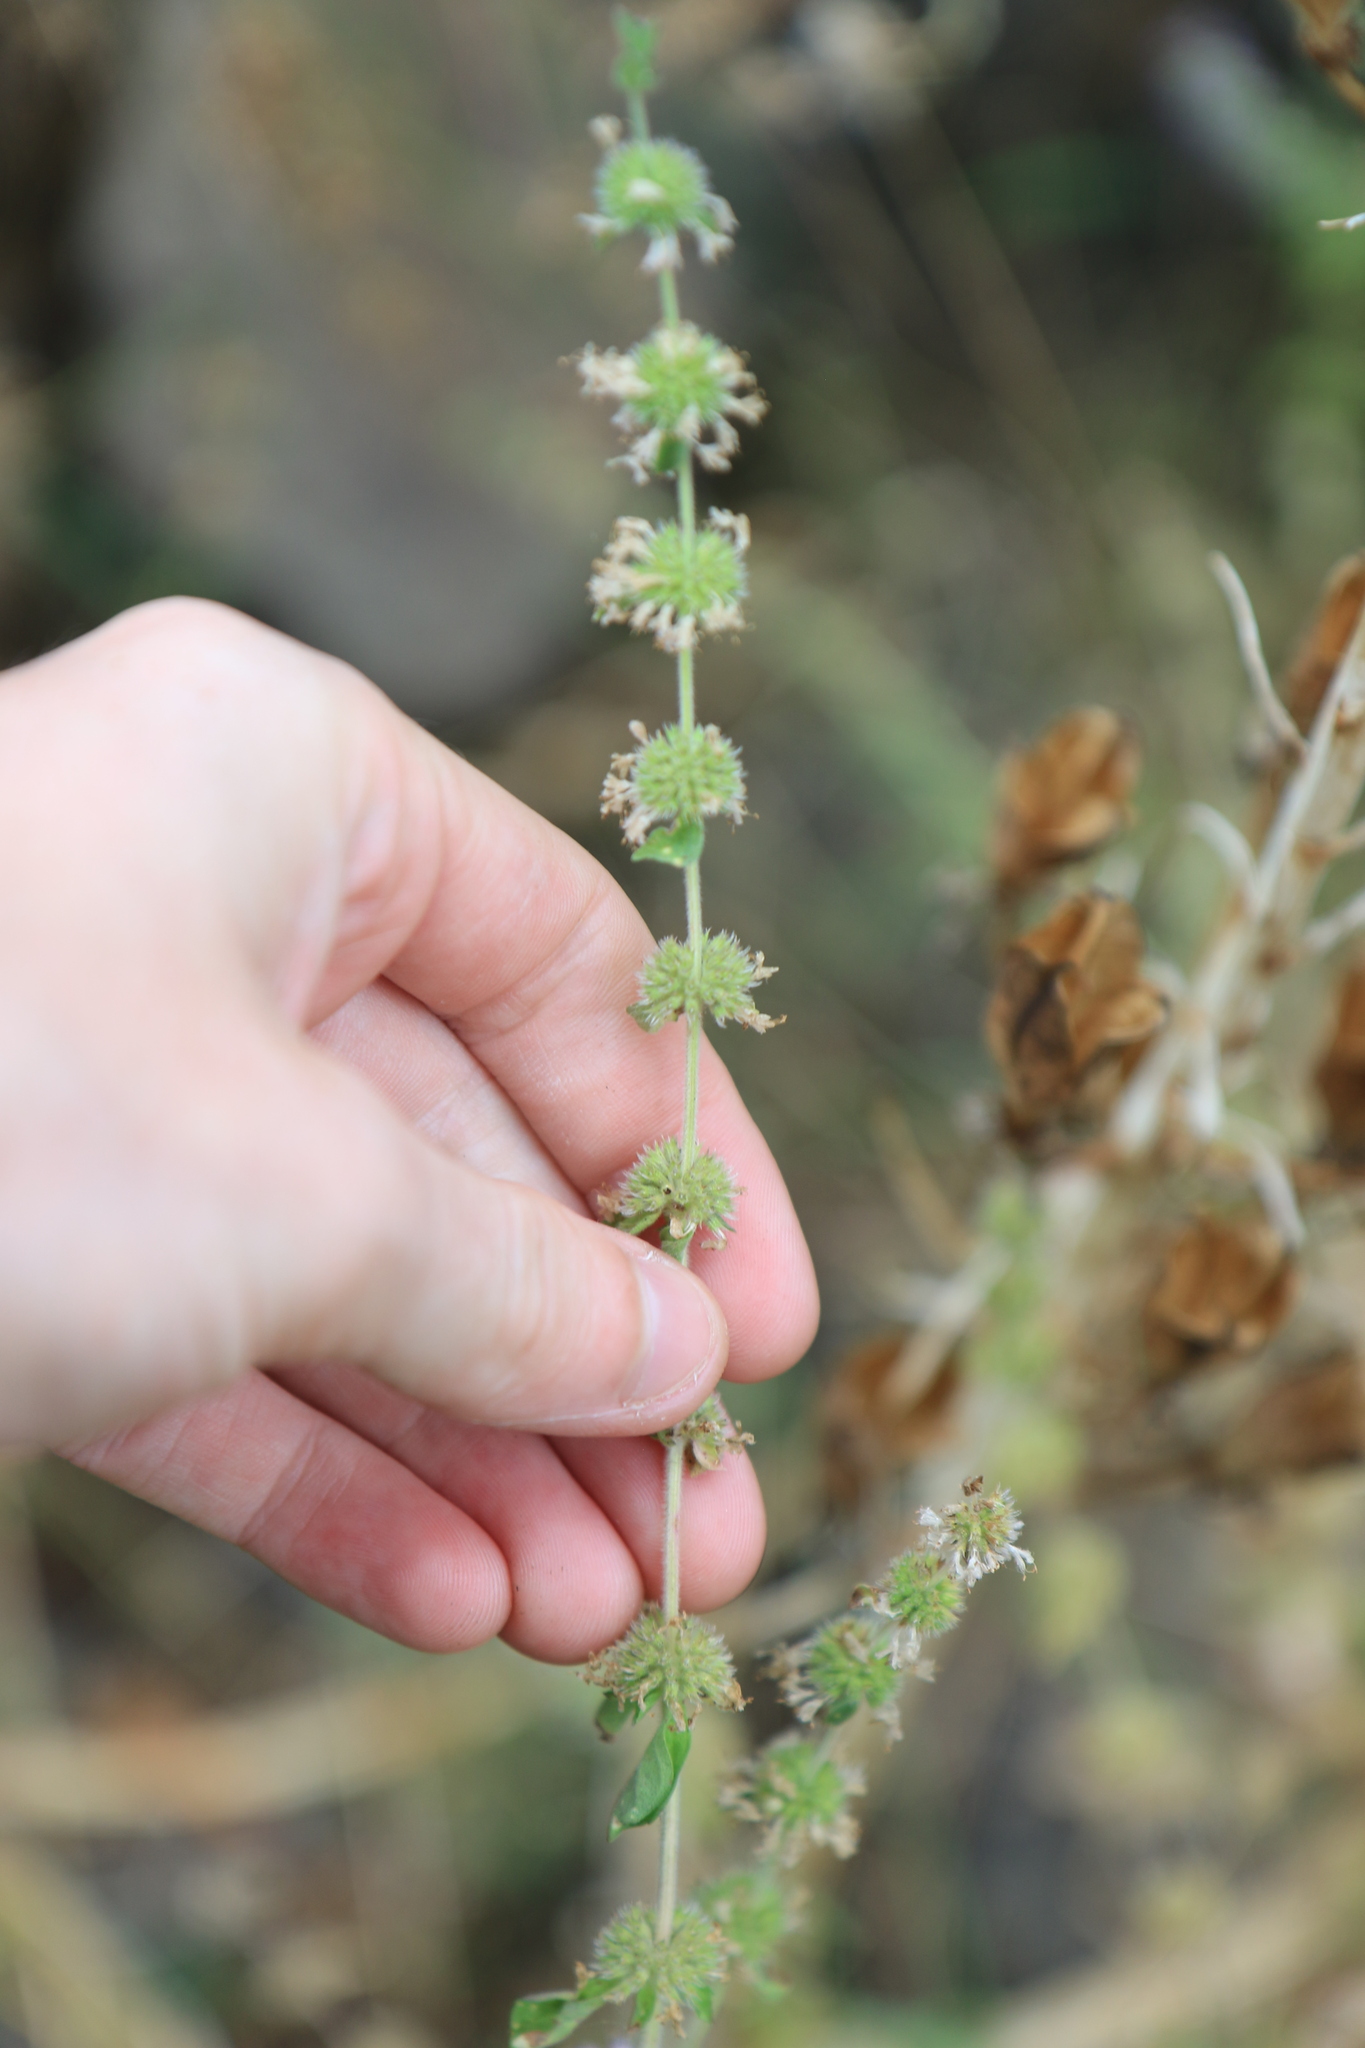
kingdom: Plantae
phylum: Tracheophyta
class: Magnoliopsida
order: Lamiales
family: Lamiaceae
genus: Mentha
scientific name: Mentha pulegium
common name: Pennyroyal
